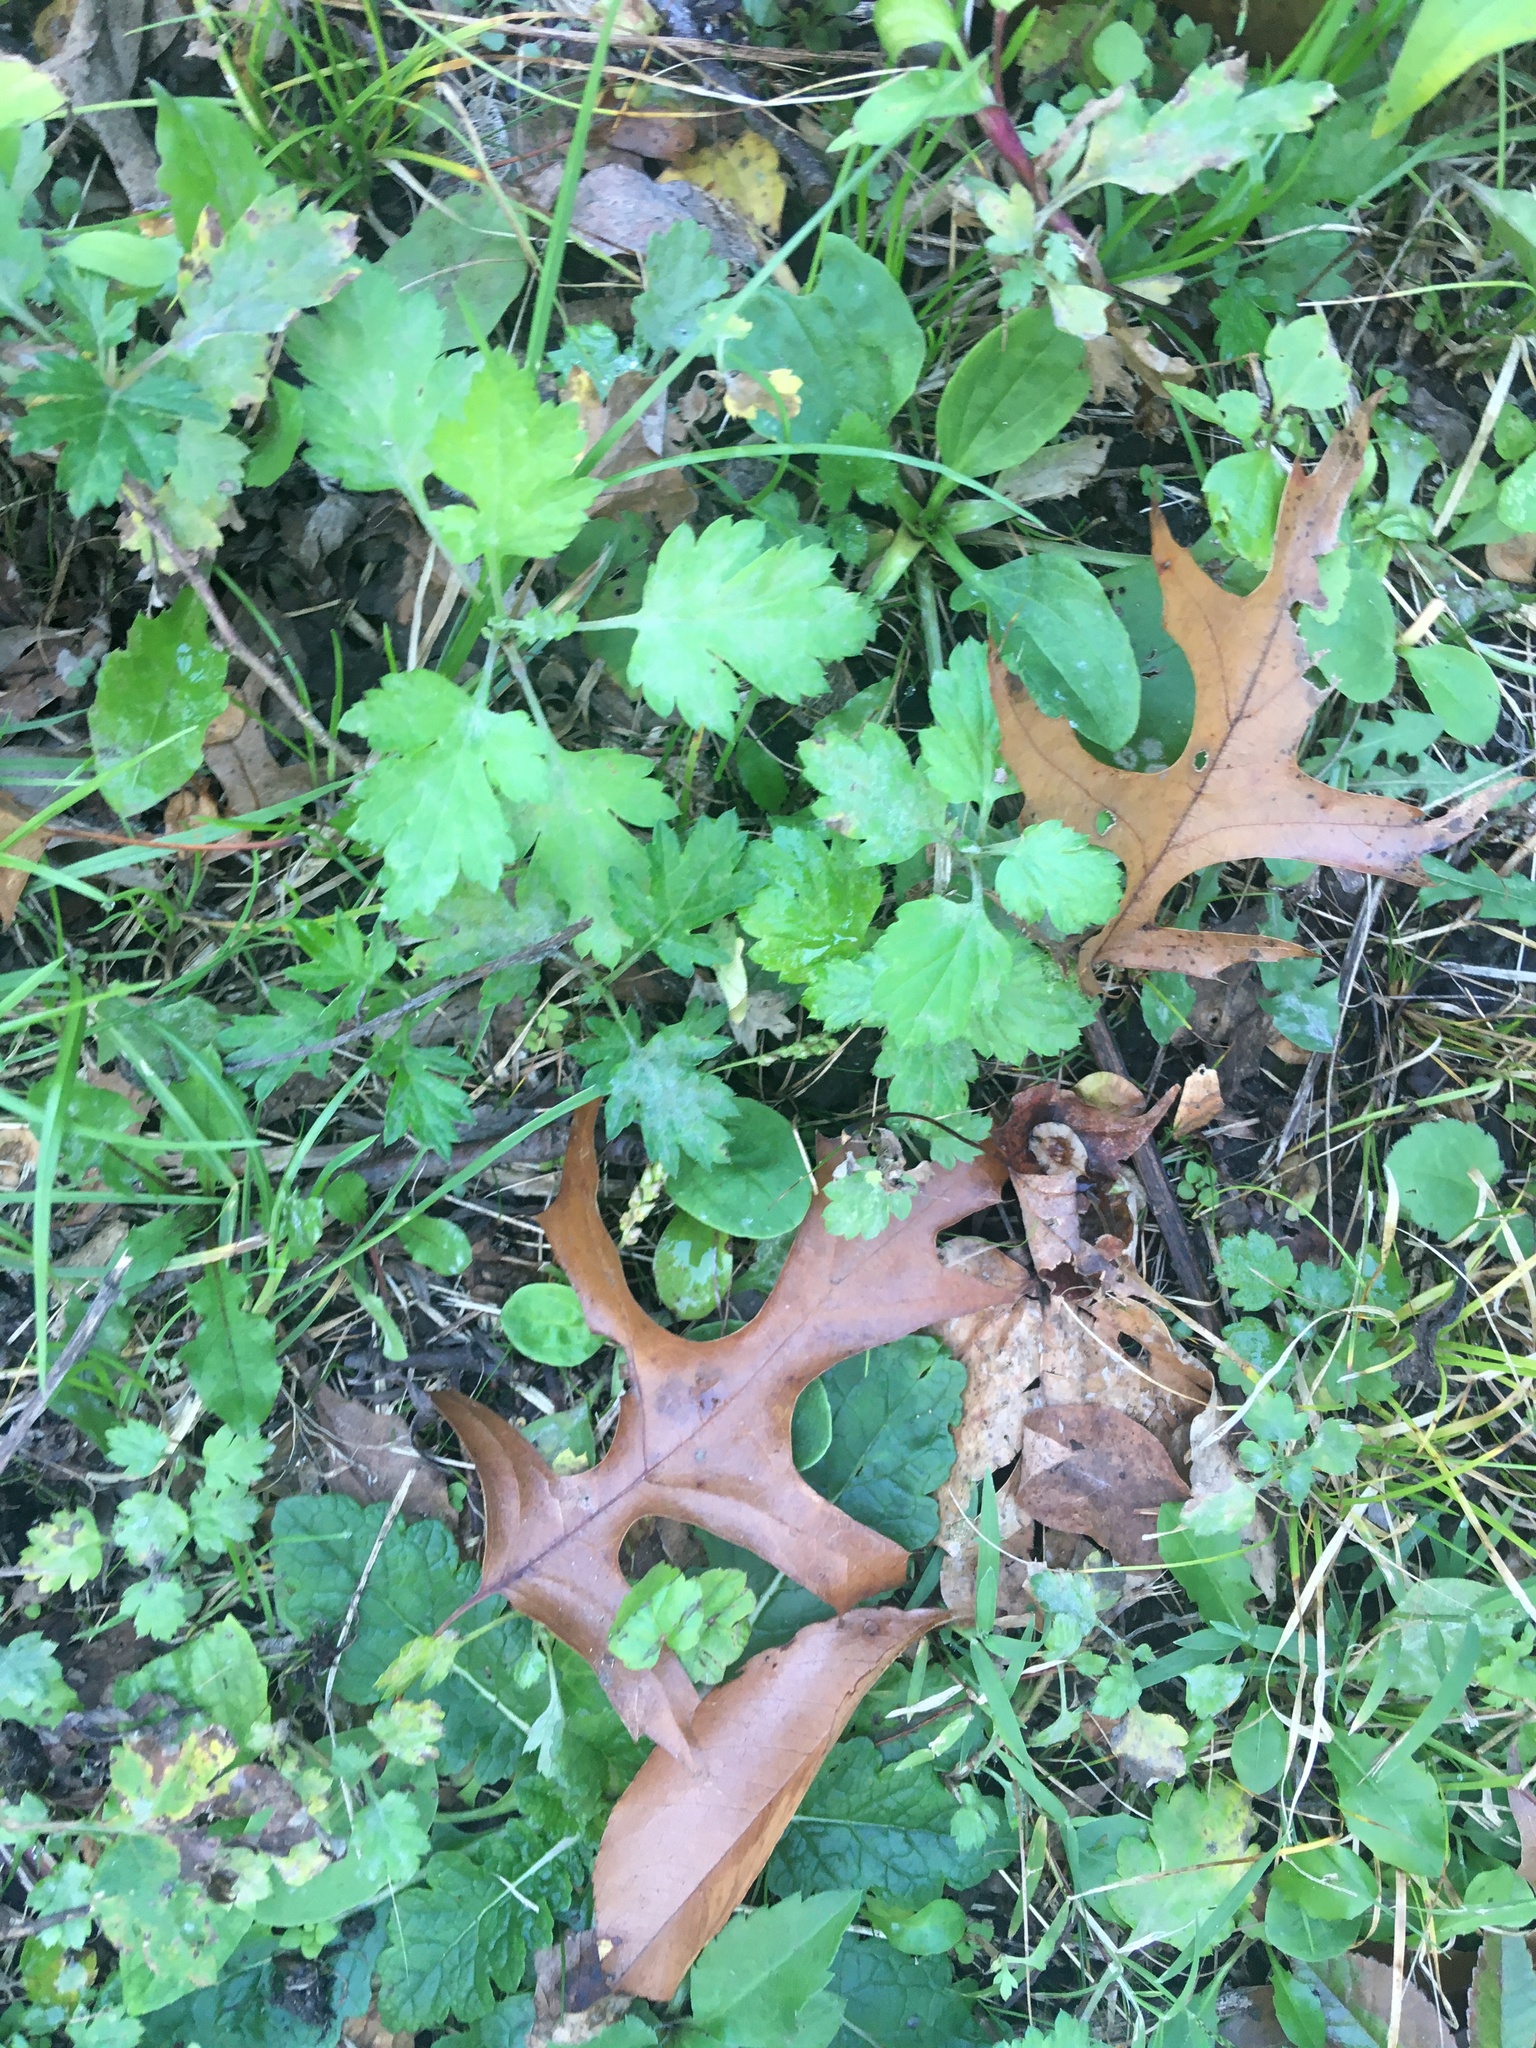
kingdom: Plantae
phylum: Tracheophyta
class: Magnoliopsida
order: Asterales
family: Asteraceae
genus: Artemisia
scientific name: Artemisia vulgaris
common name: Mugwort
